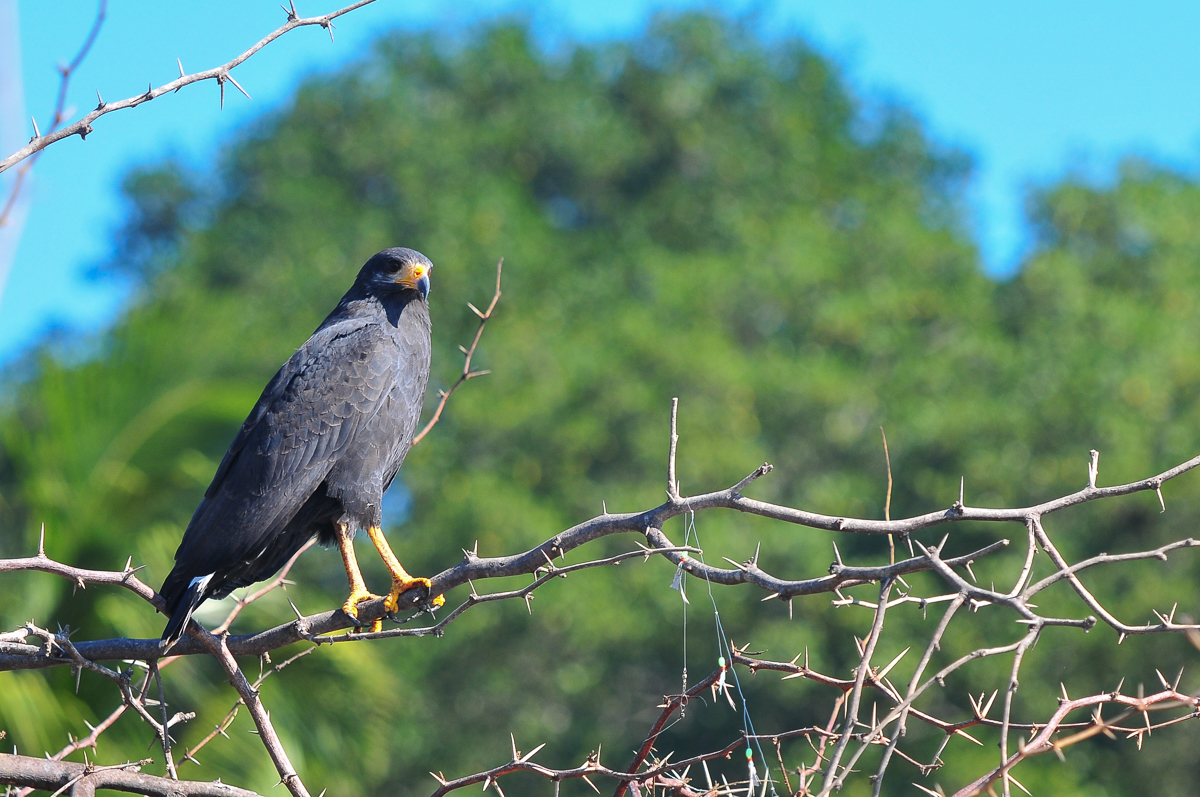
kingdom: Animalia
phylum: Chordata
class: Aves
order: Accipitriformes
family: Accipitridae
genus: Buteogallus
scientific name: Buteogallus anthracinus
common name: Common black hawk
